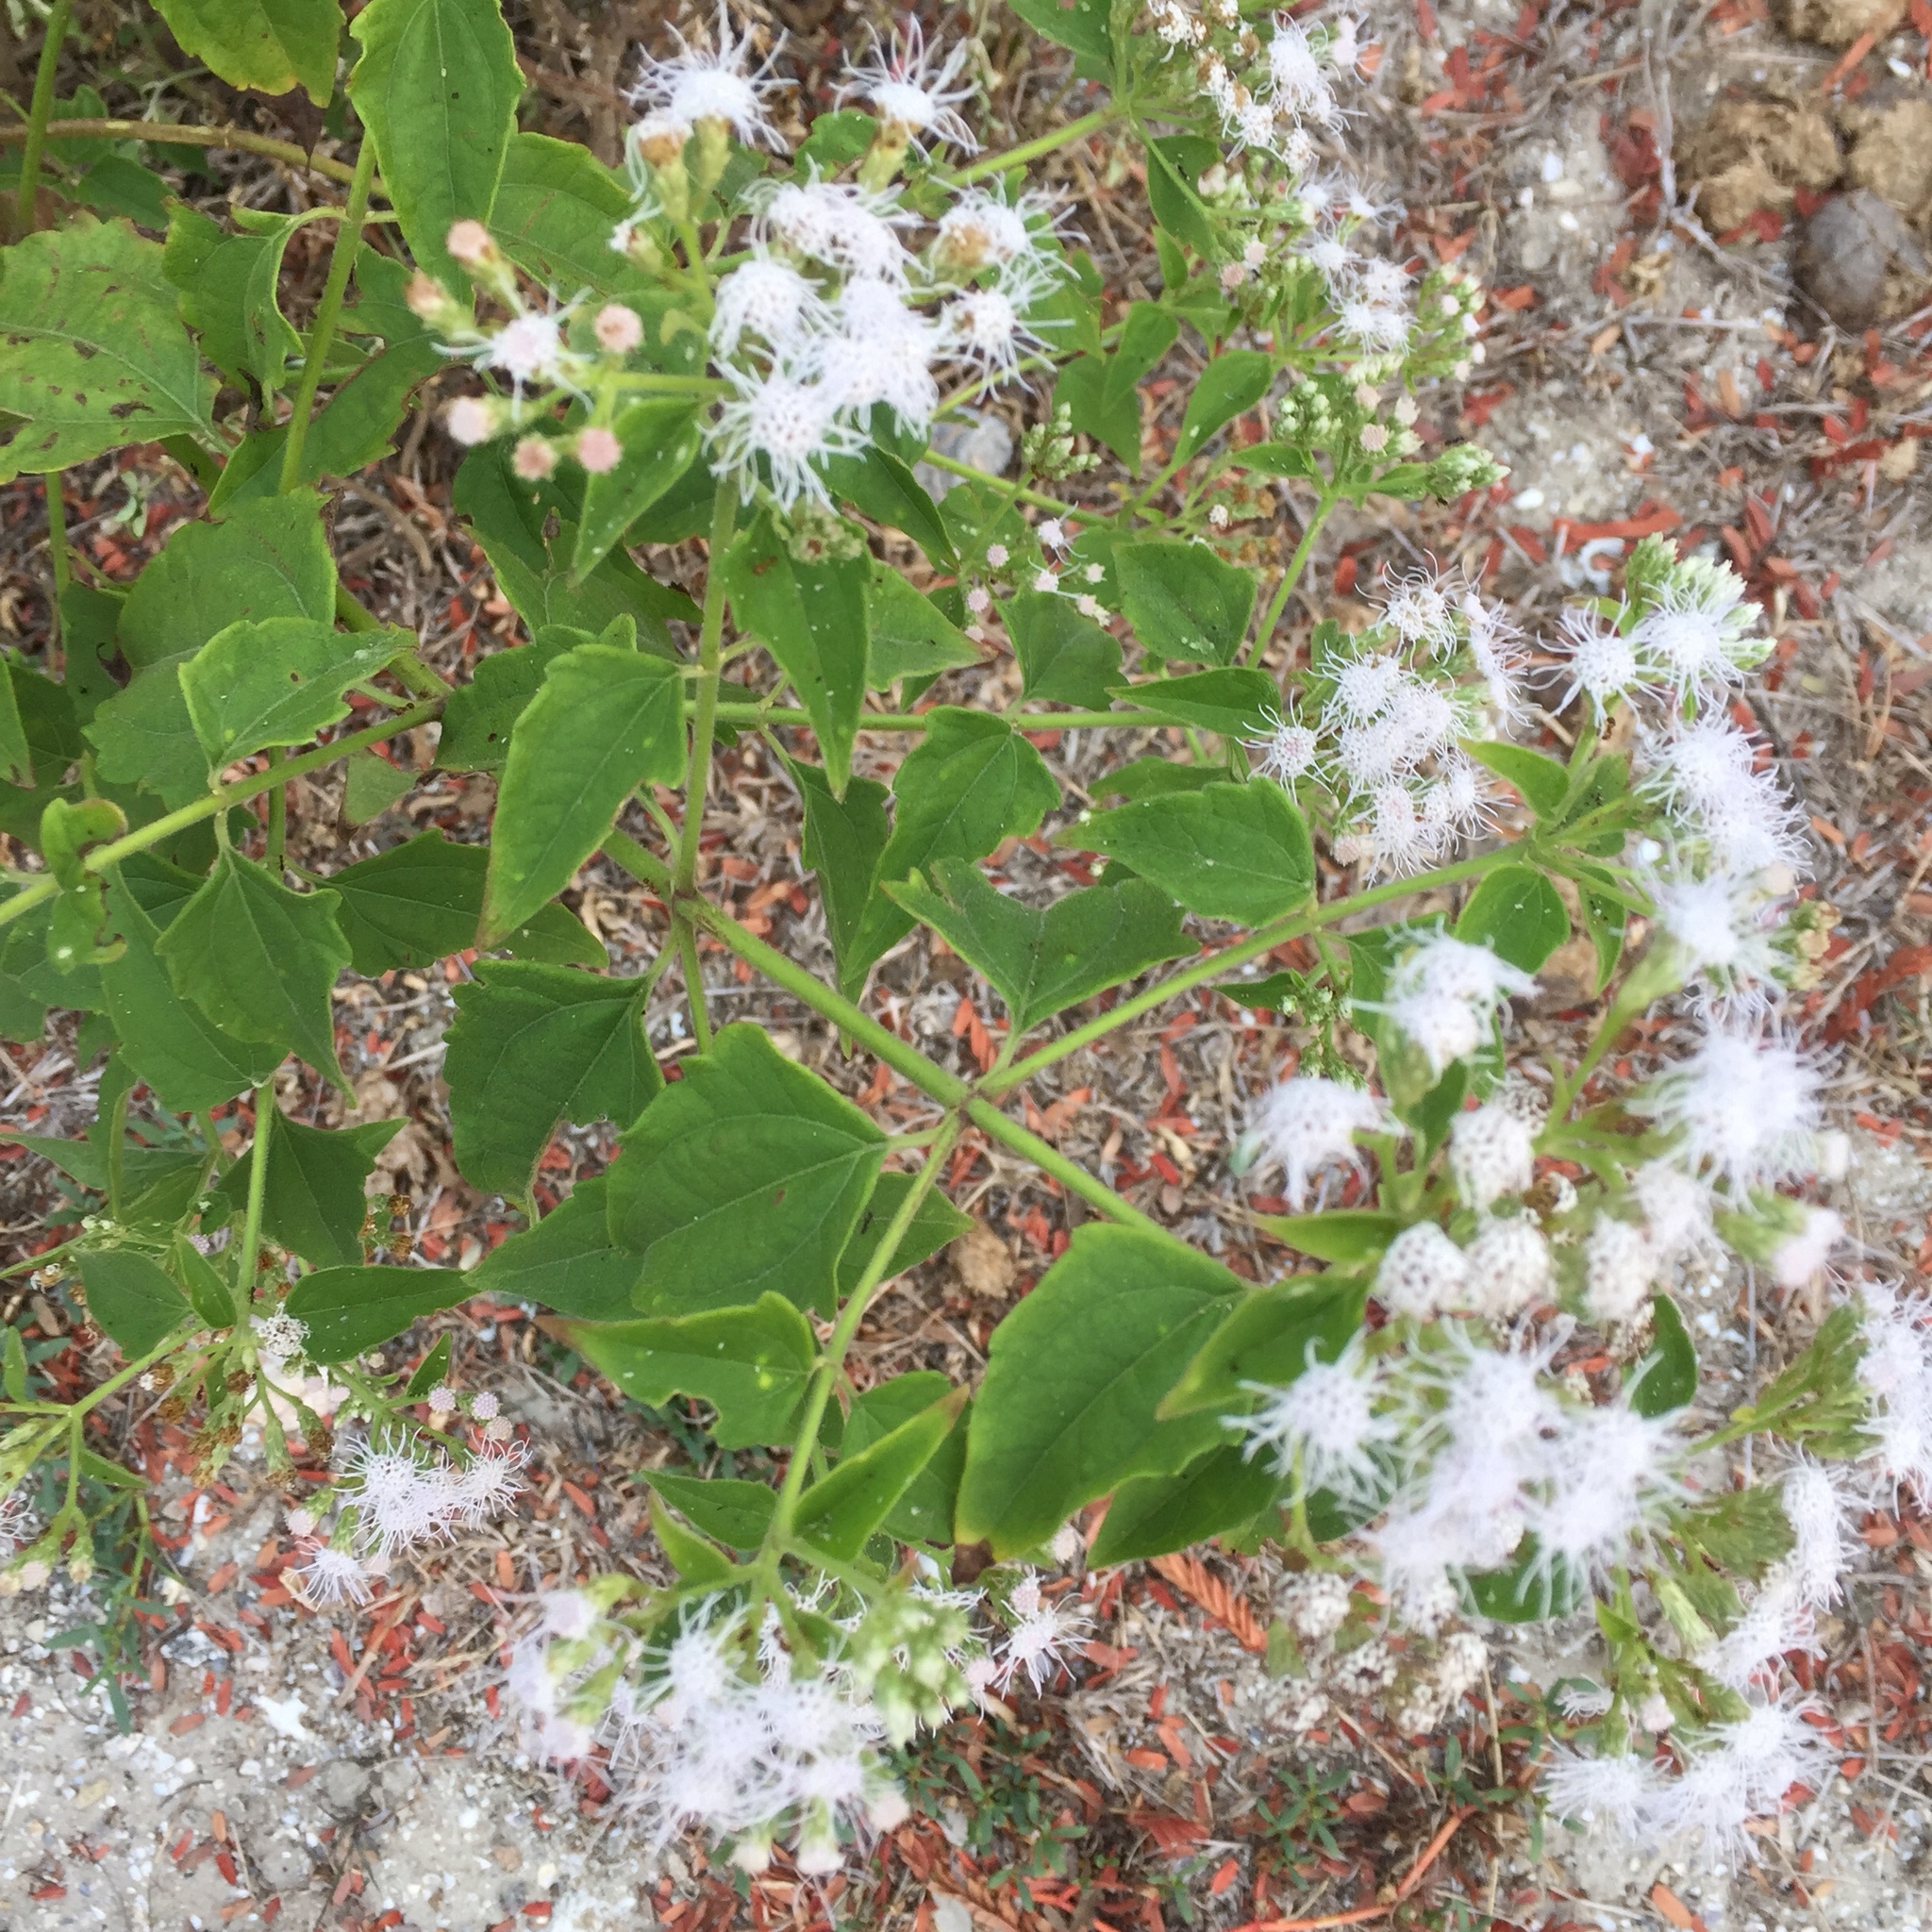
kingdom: Plantae
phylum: Tracheophyta
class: Magnoliopsida
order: Asterales
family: Asteraceae
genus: Chromolaena
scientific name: Chromolaena odorata
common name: Siamweed
